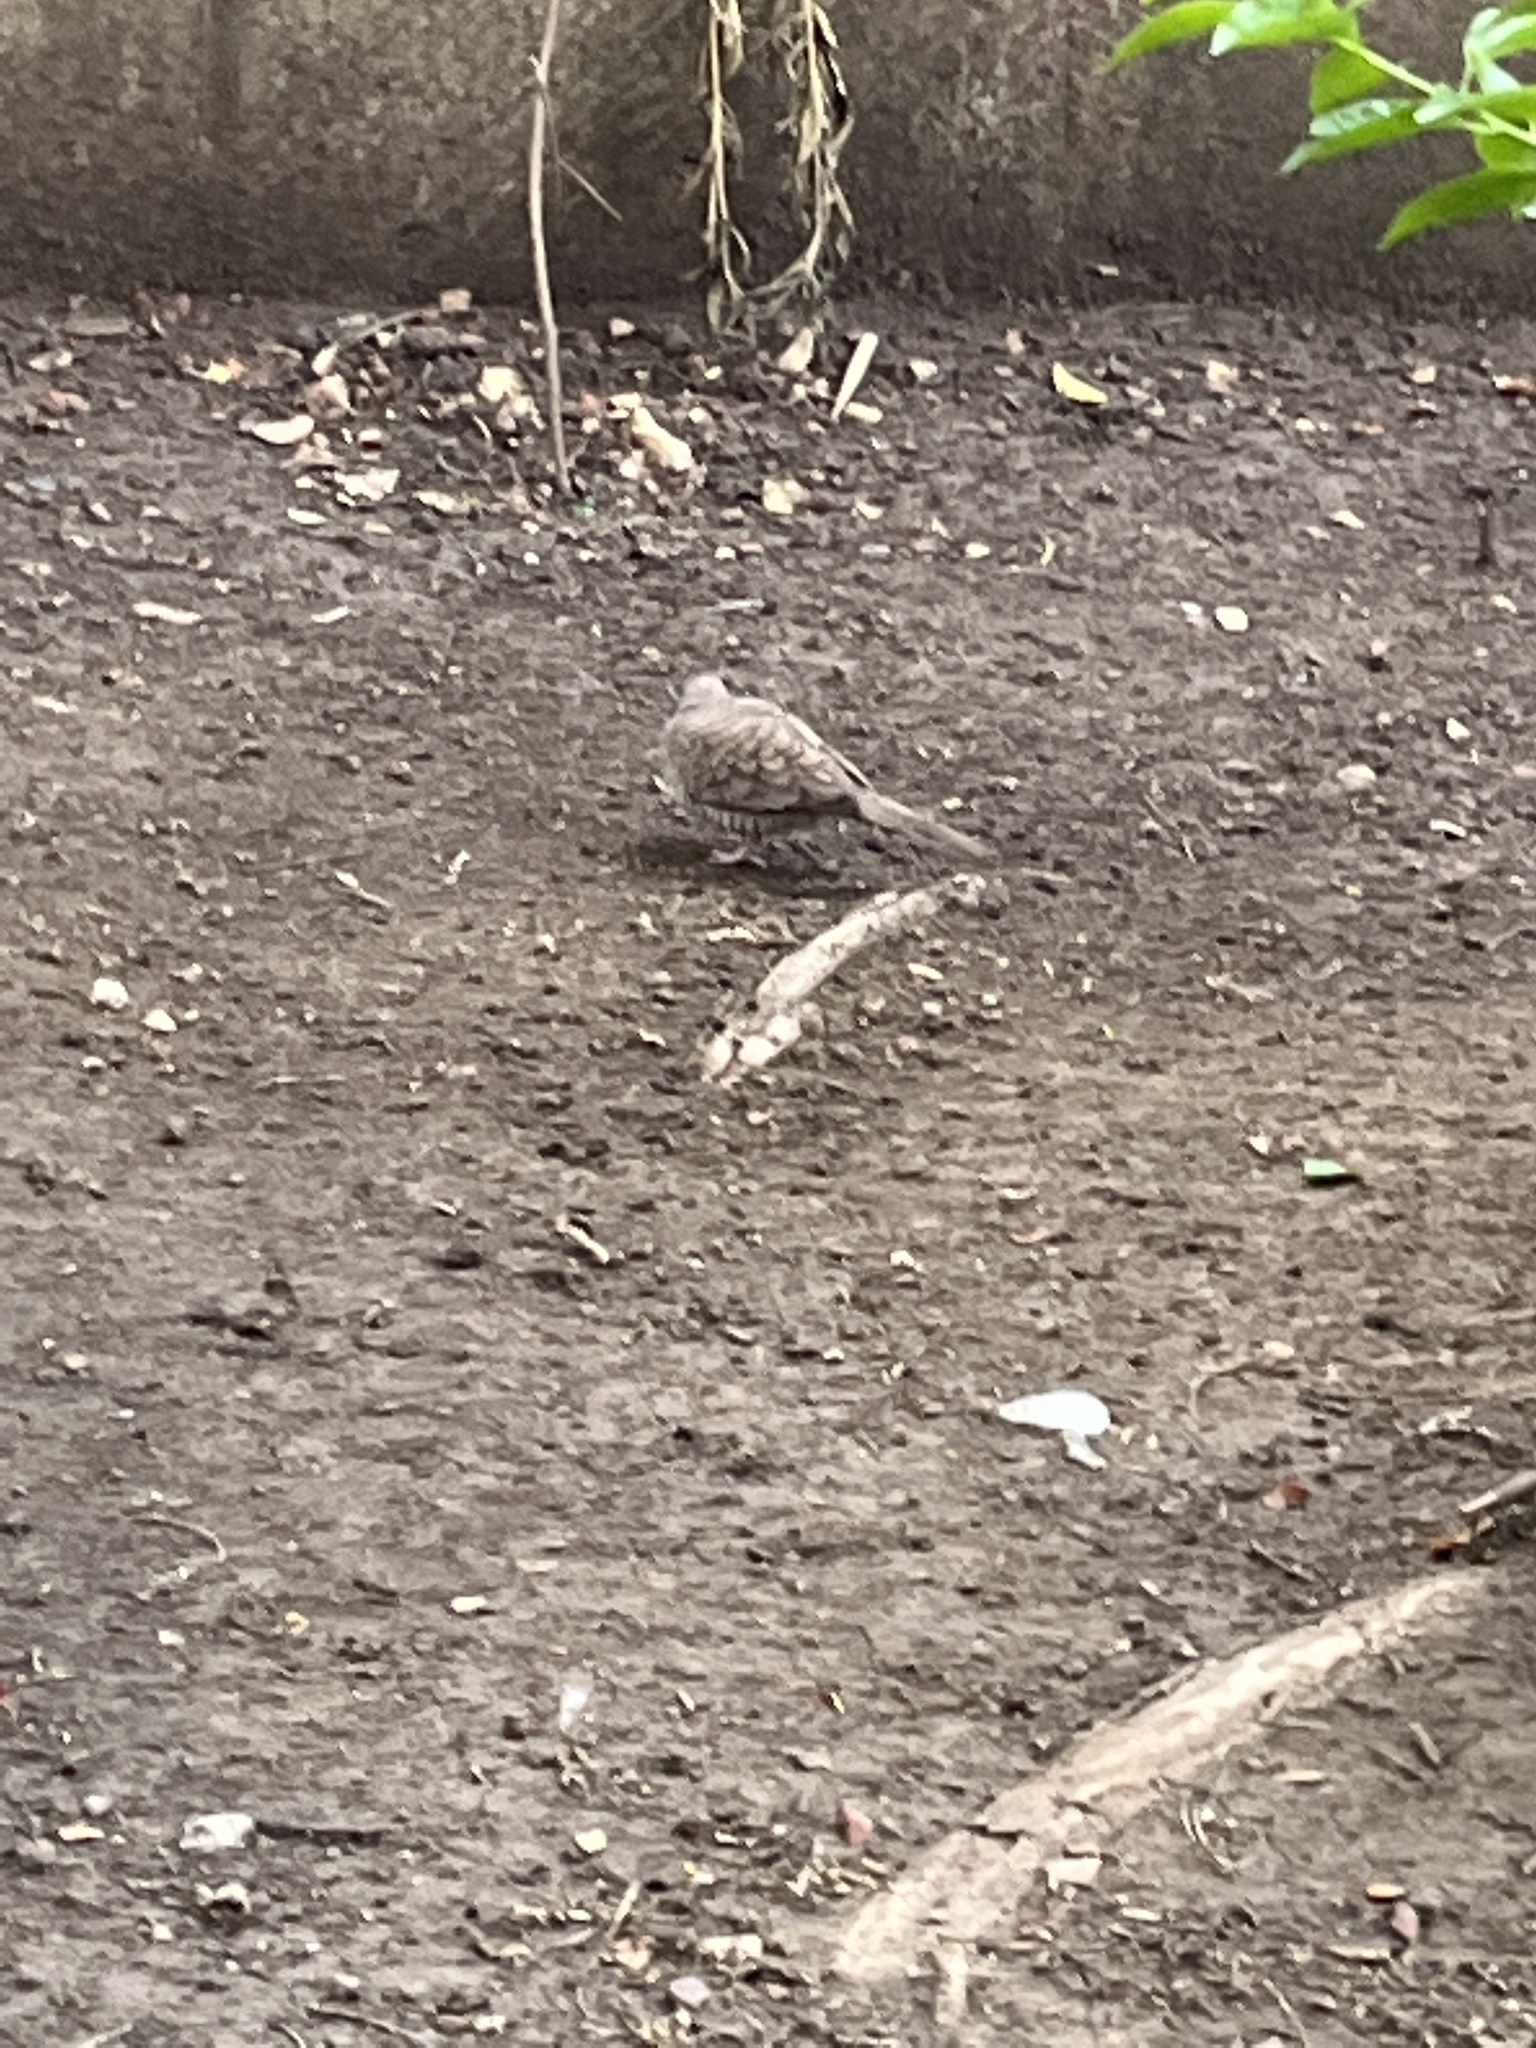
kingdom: Animalia
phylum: Chordata
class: Aves
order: Columbiformes
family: Columbidae
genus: Columbina
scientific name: Columbina inca
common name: Inca dove
